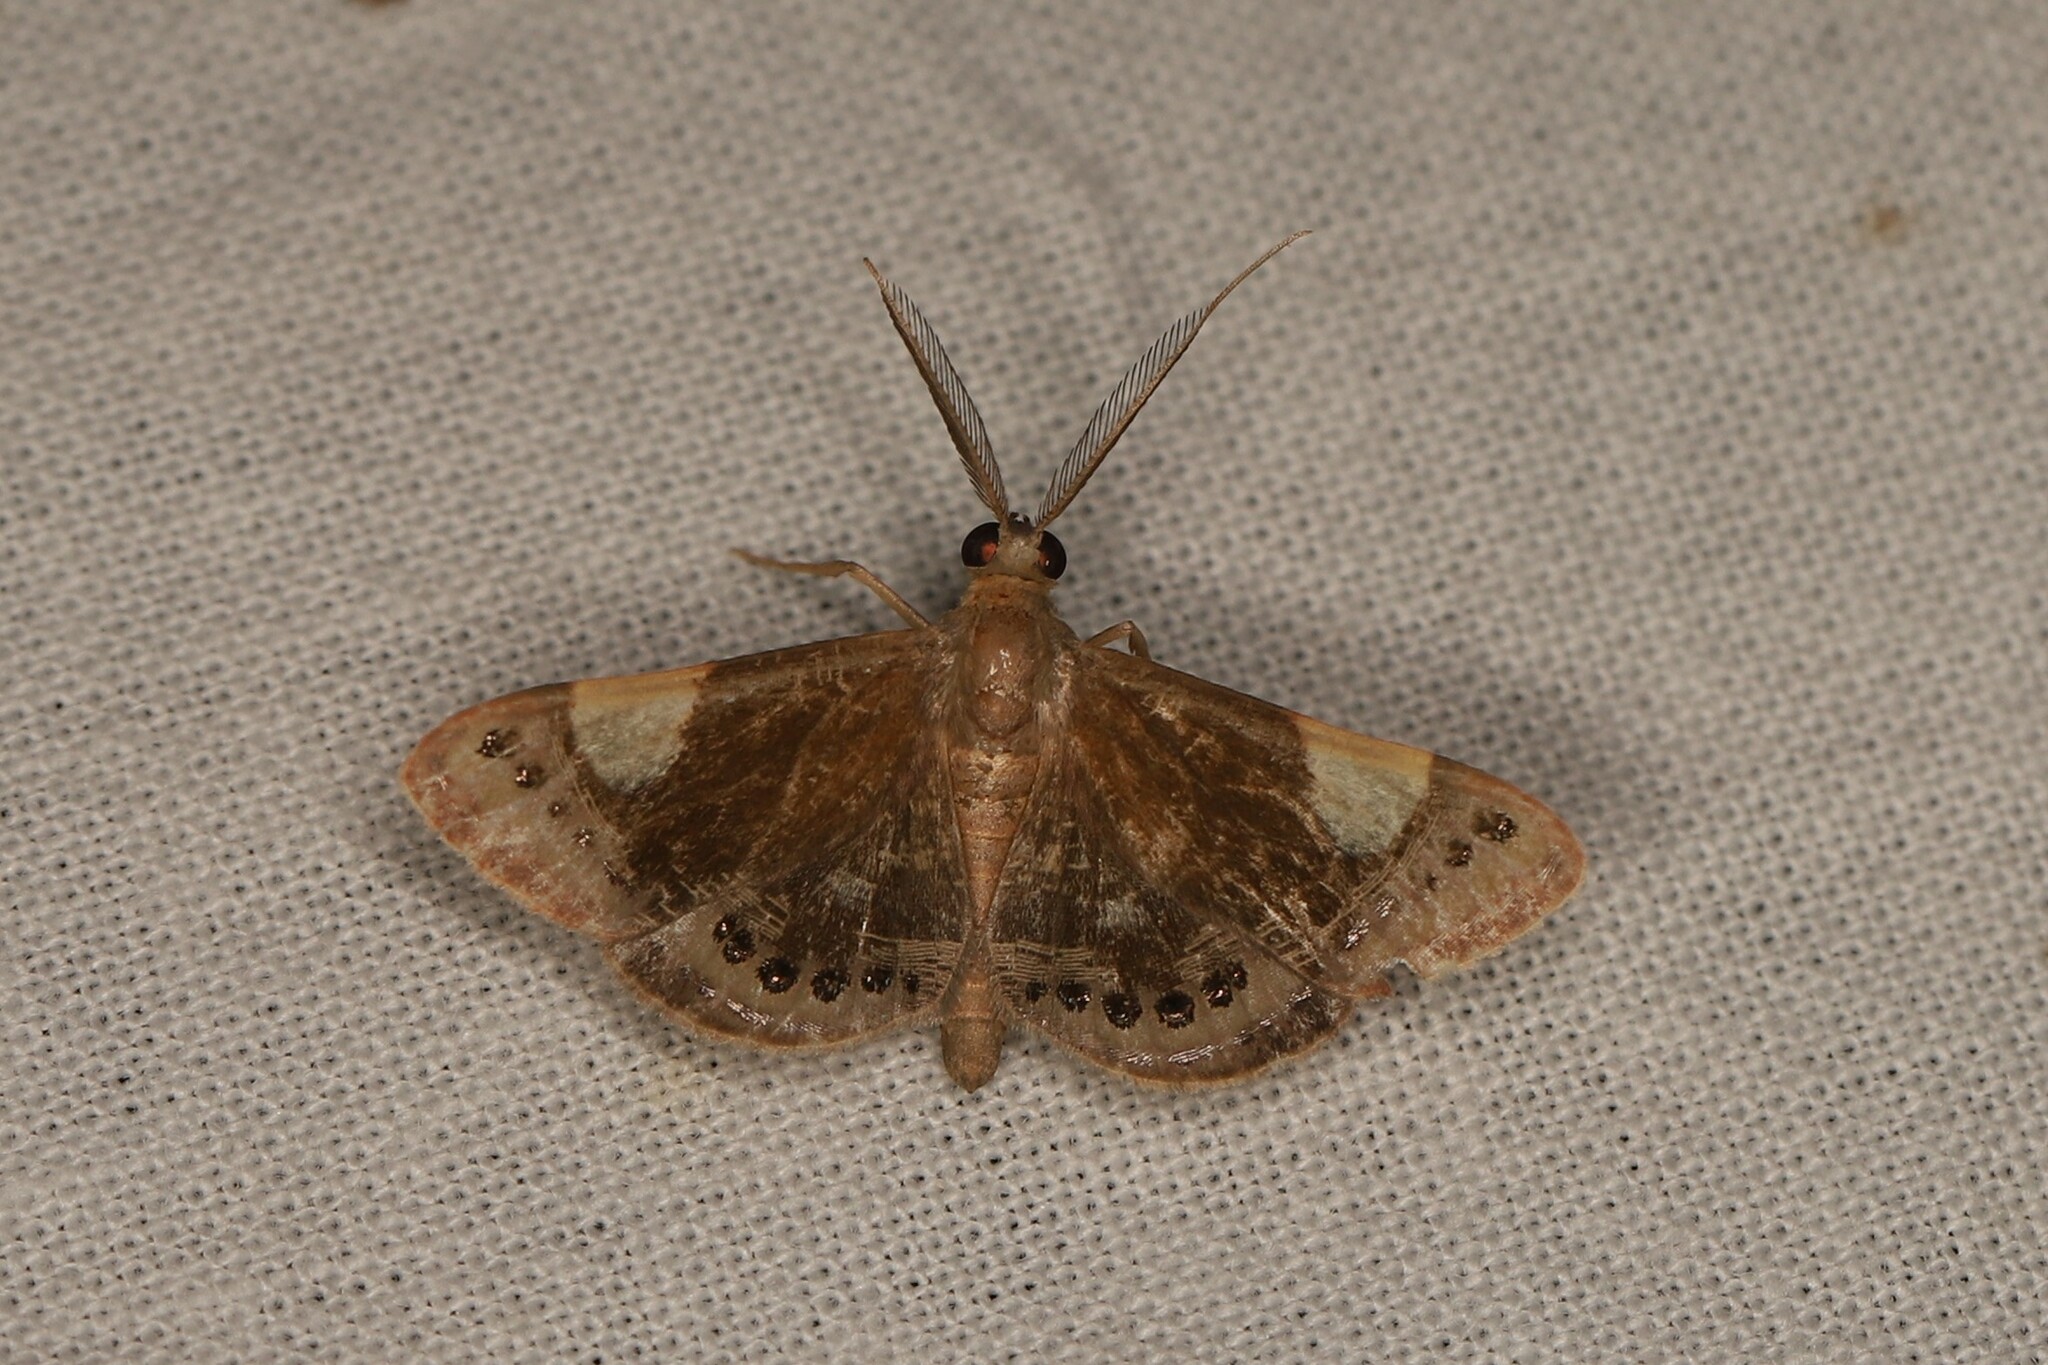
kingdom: Animalia
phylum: Arthropoda
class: Insecta
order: Lepidoptera
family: Geometridae
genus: Aplogompha
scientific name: Aplogompha argentilinea
